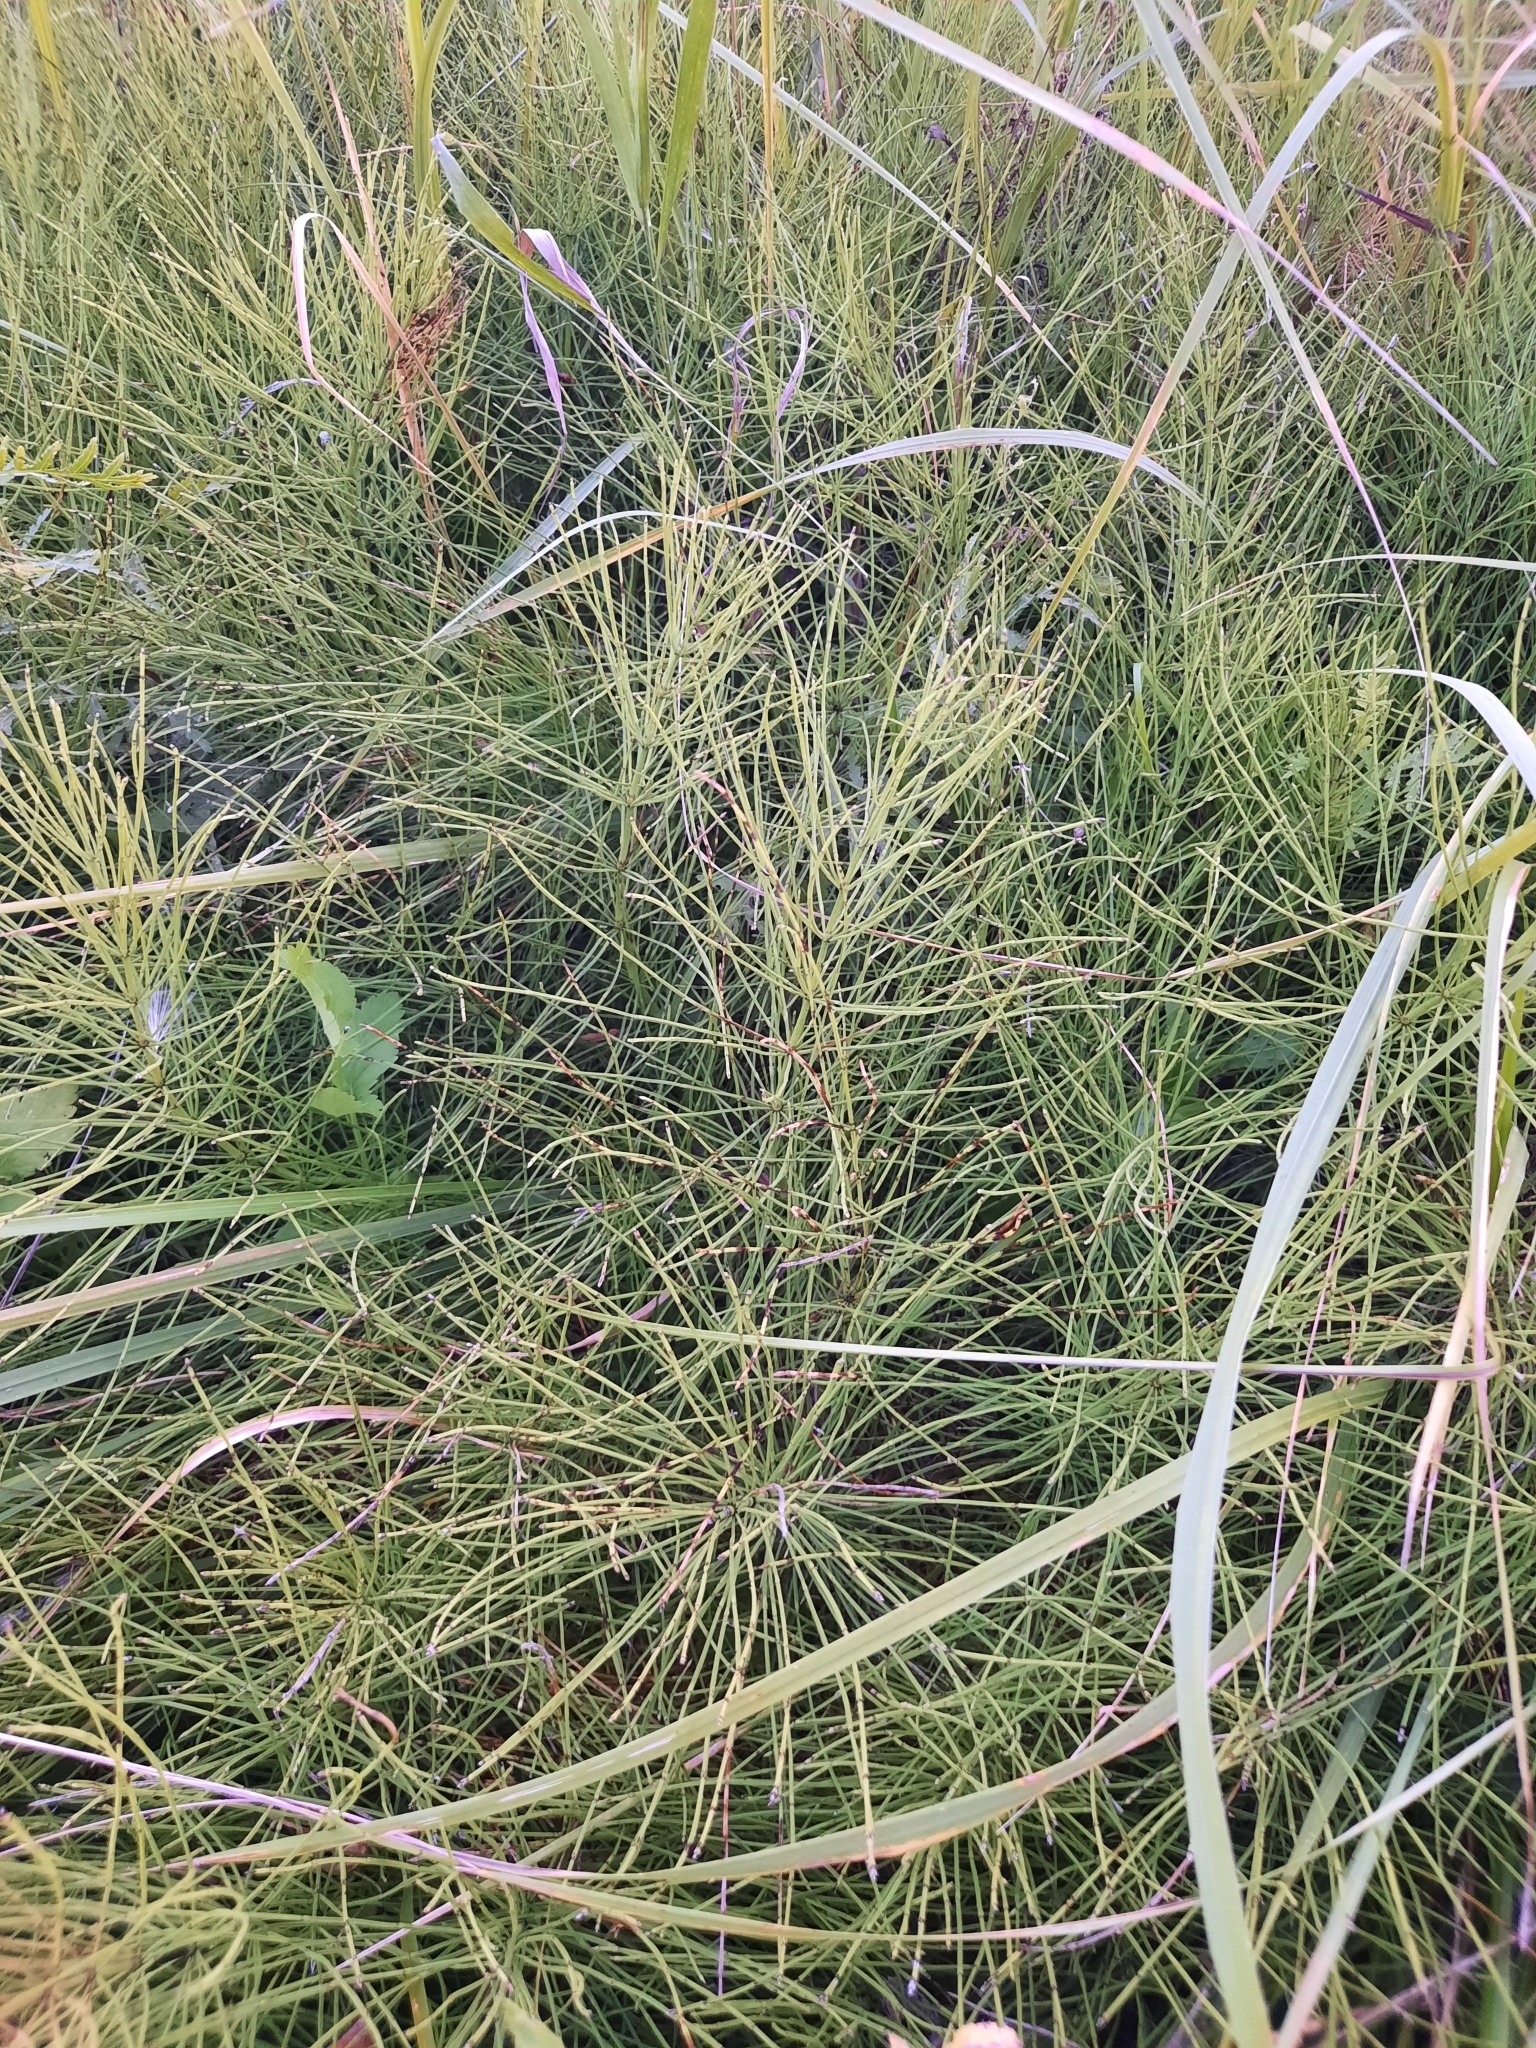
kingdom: Plantae
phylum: Tracheophyta
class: Polypodiopsida
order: Equisetales
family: Equisetaceae
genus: Equisetum
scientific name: Equisetum arvense
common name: Field horsetail
